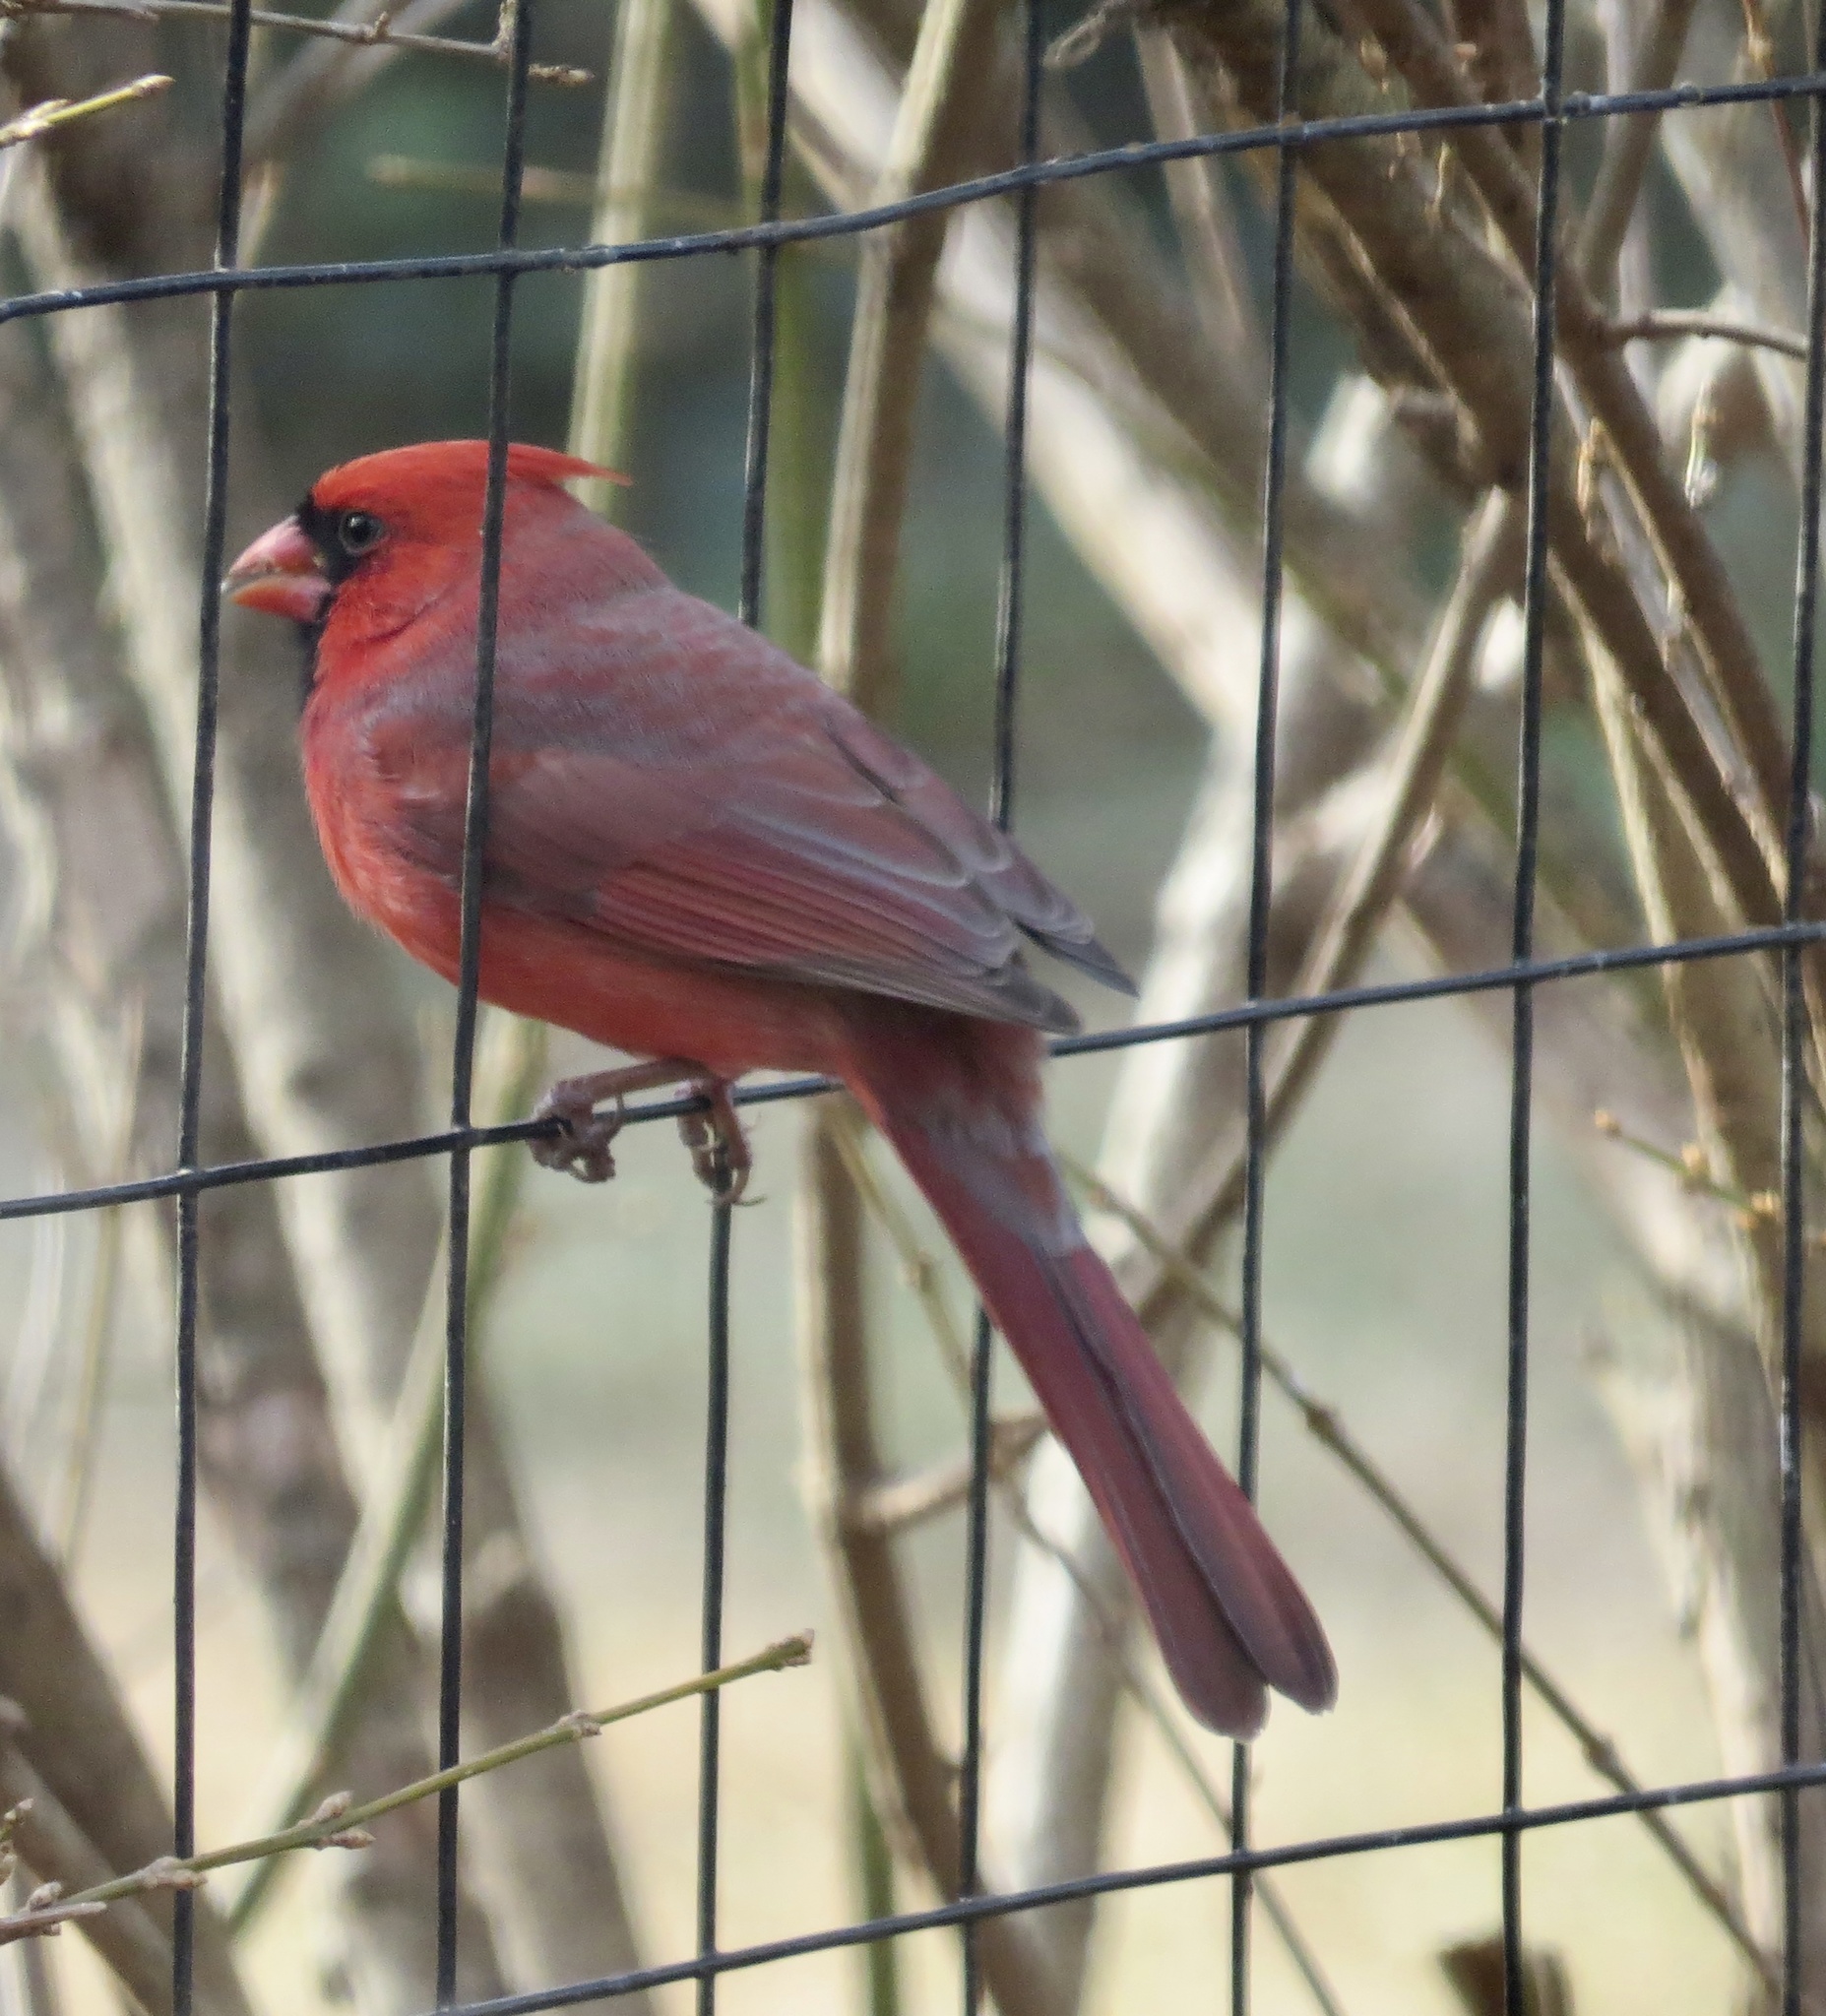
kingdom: Animalia
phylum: Chordata
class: Aves
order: Passeriformes
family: Cardinalidae
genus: Cardinalis
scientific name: Cardinalis cardinalis
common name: Northern cardinal
